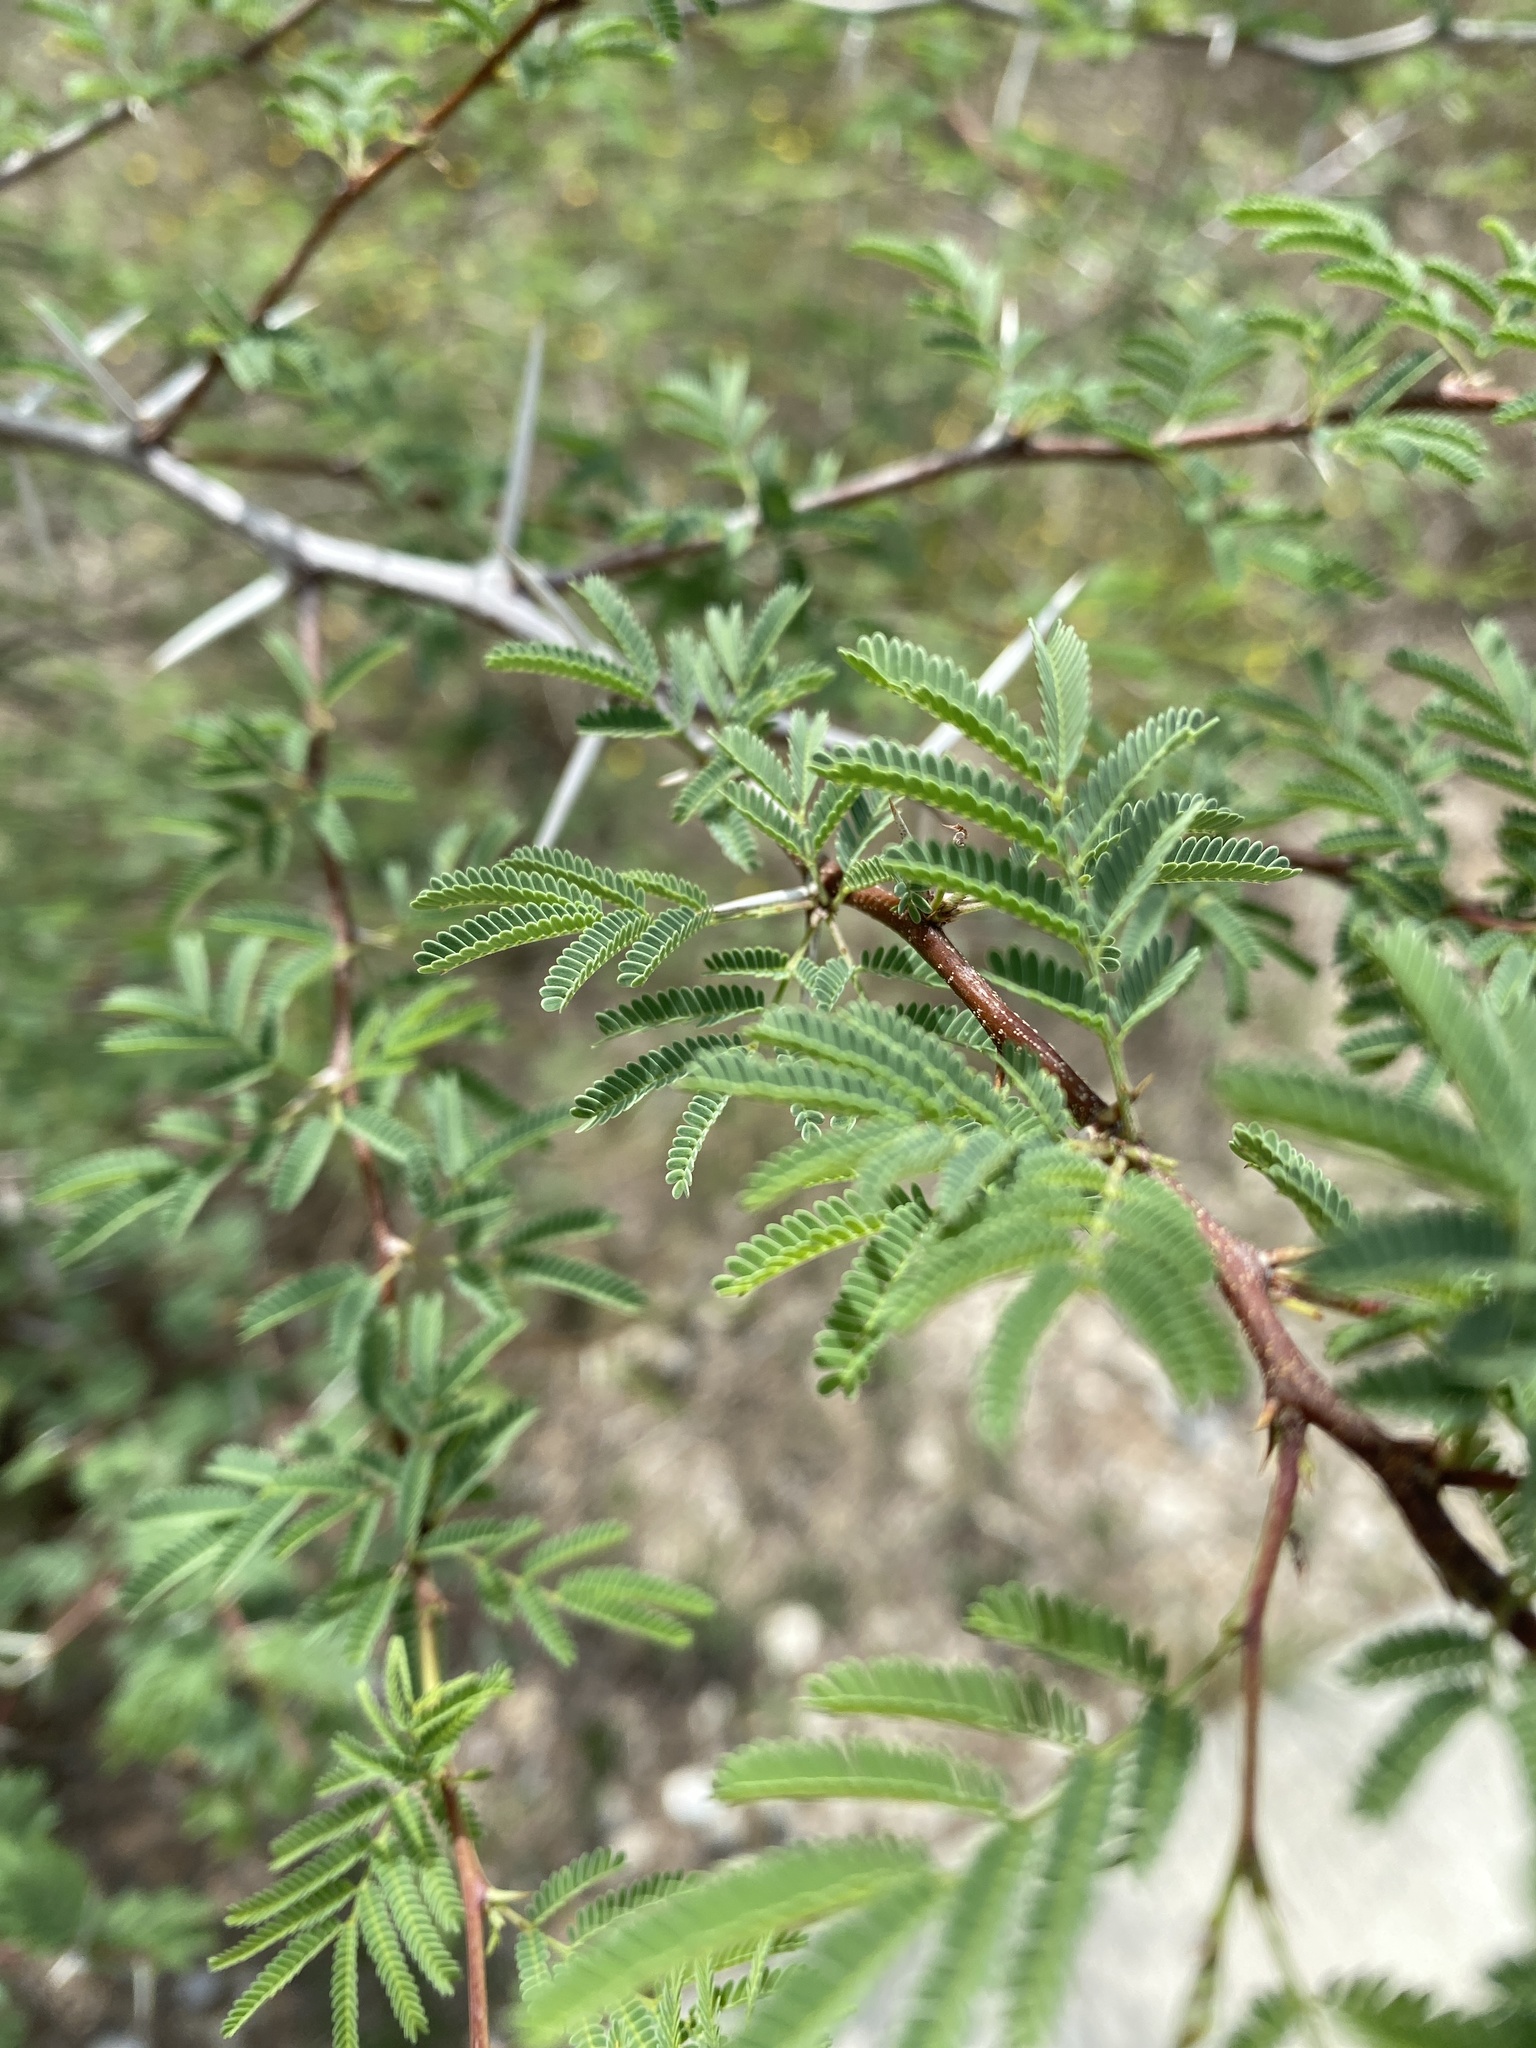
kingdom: Plantae
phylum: Tracheophyta
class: Magnoliopsida
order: Fabales
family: Fabaceae
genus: Vachellia
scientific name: Vachellia farnesiana
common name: Sweet acacia
